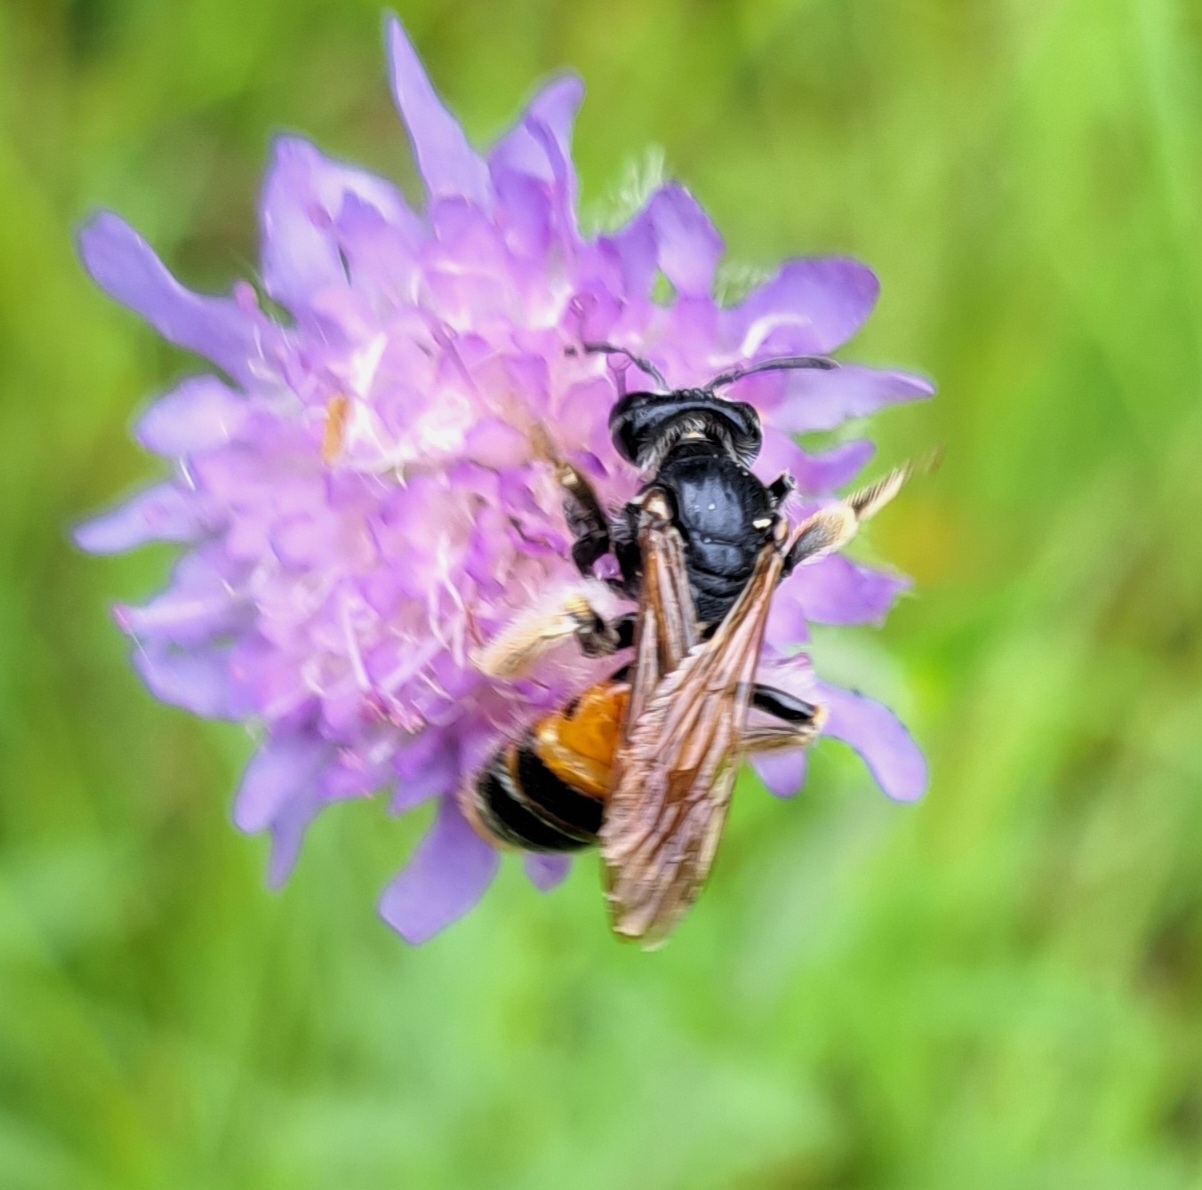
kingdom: Animalia
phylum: Arthropoda
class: Insecta
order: Hymenoptera
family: Andrenidae
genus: Andrena
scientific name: Andrena hattorfiana
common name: Large scabious mining bee
